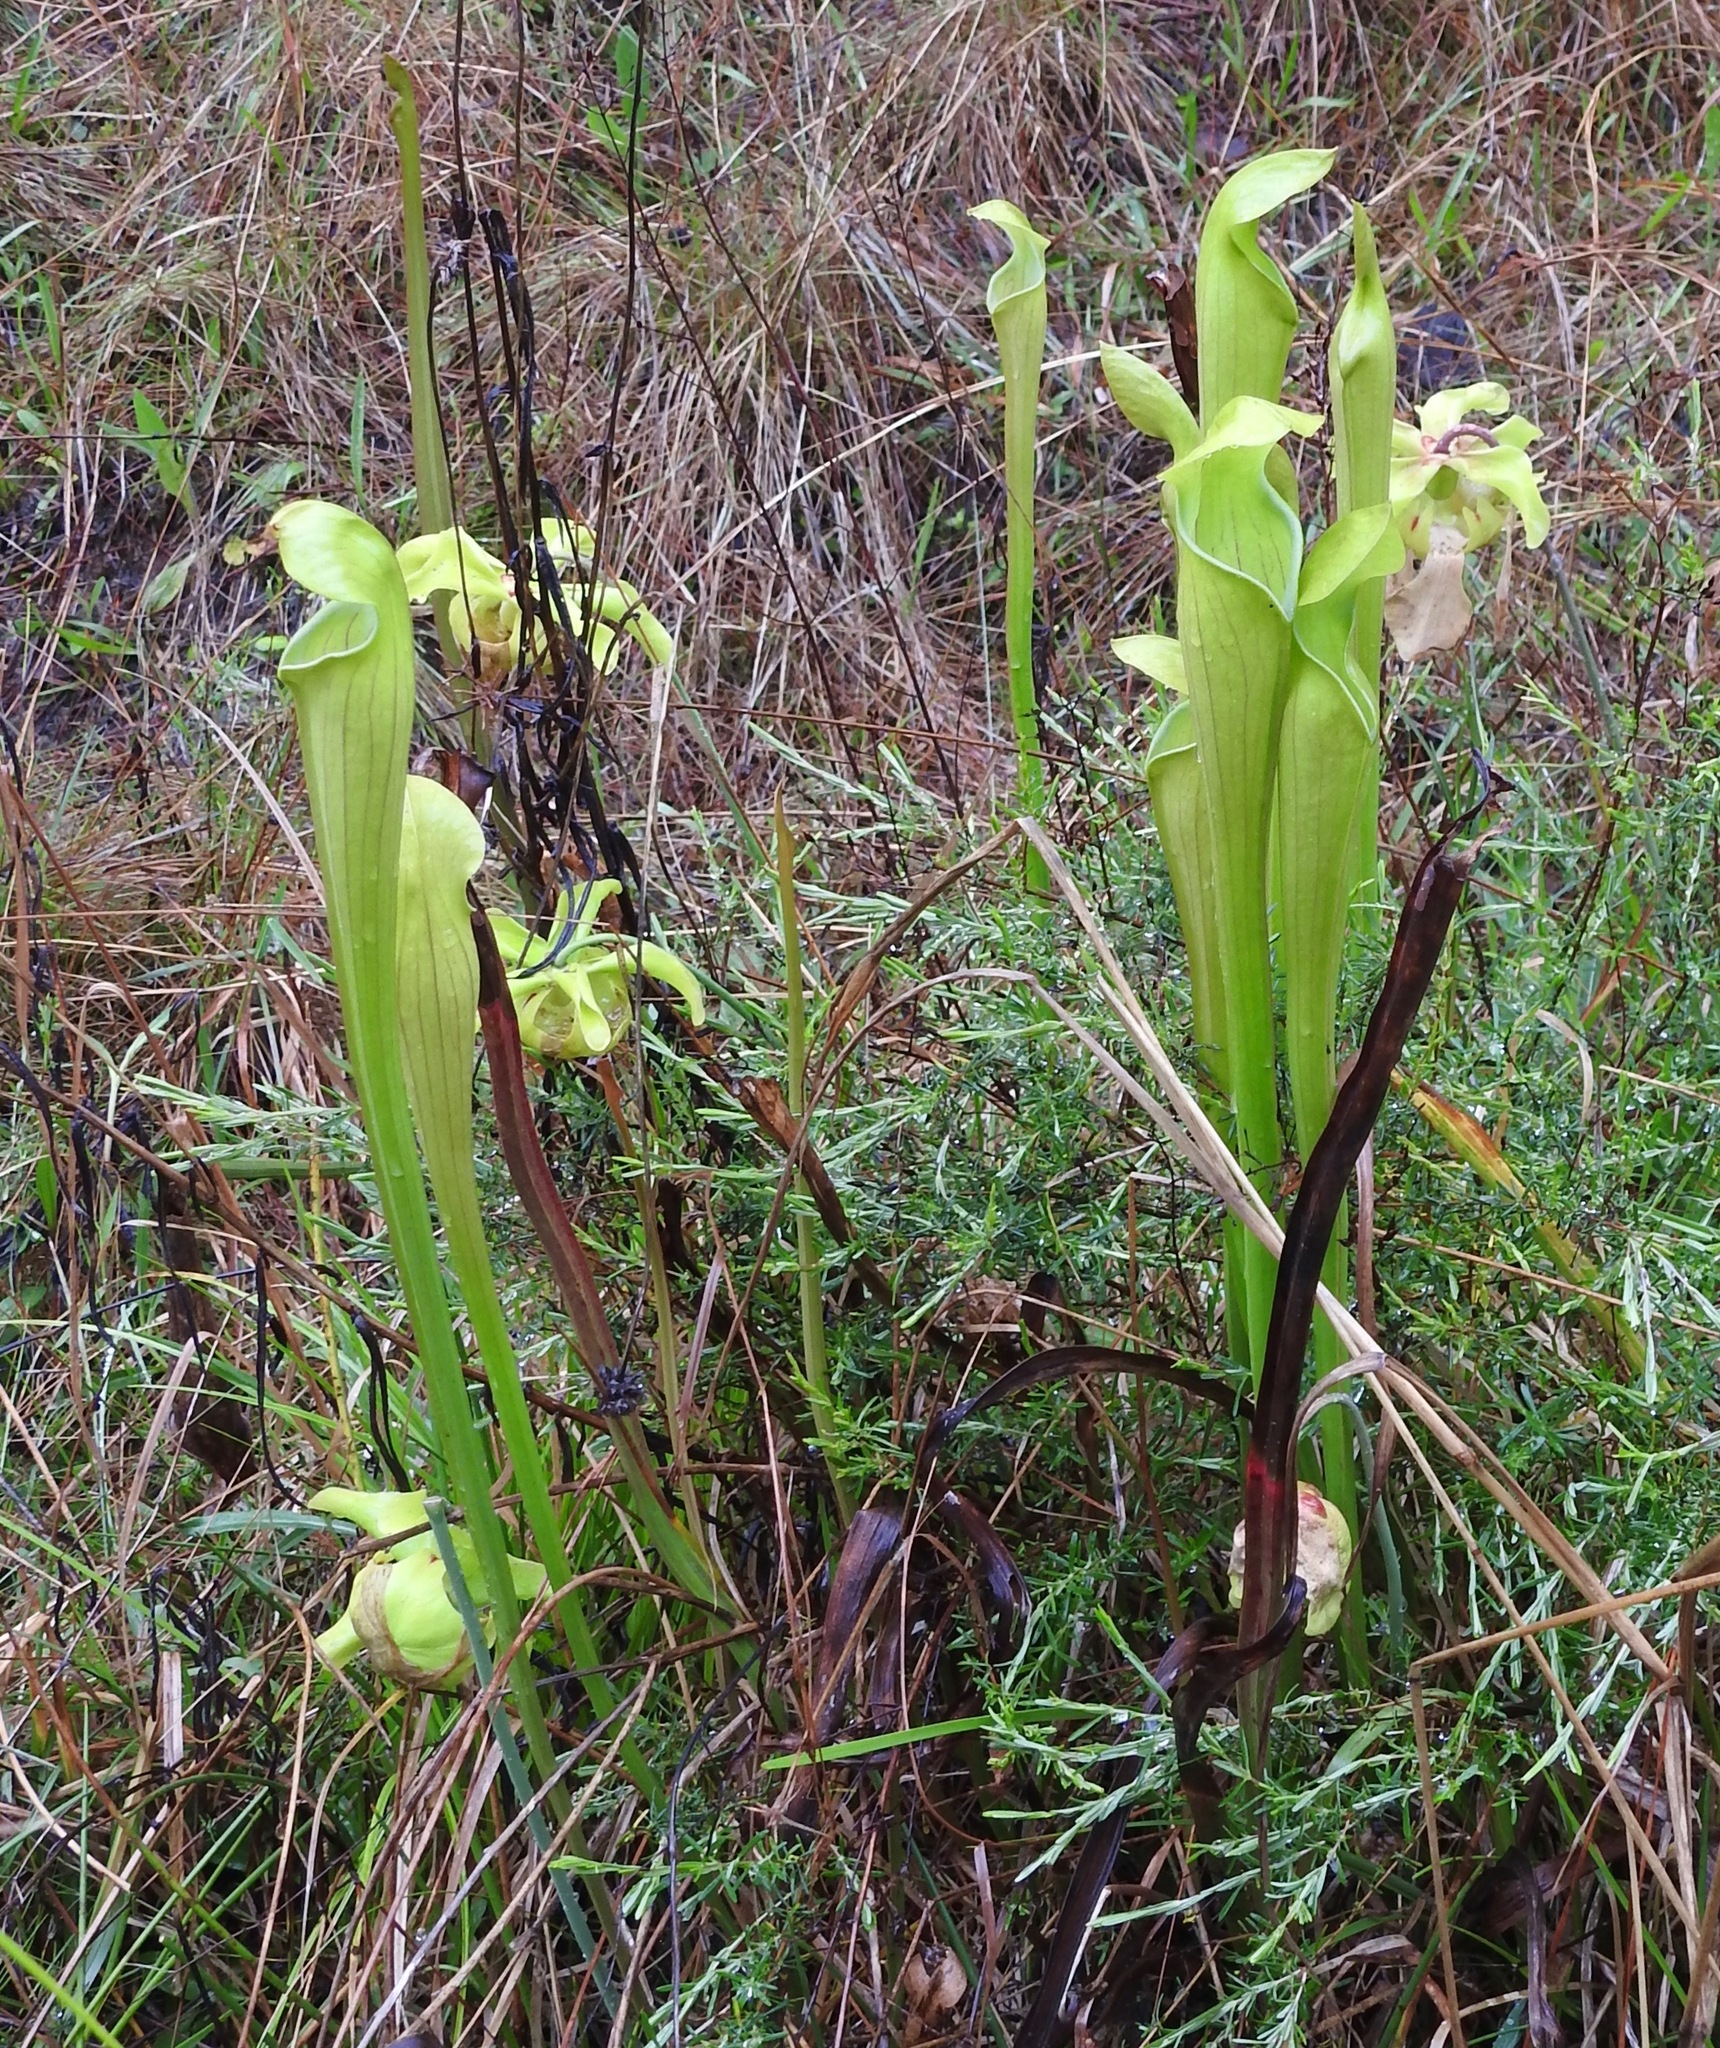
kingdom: Plantae
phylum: Tracheophyta
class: Magnoliopsida
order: Ericales
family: Sarraceniaceae
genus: Sarracenia
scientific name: Sarracenia alata
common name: Yellow trumpets
